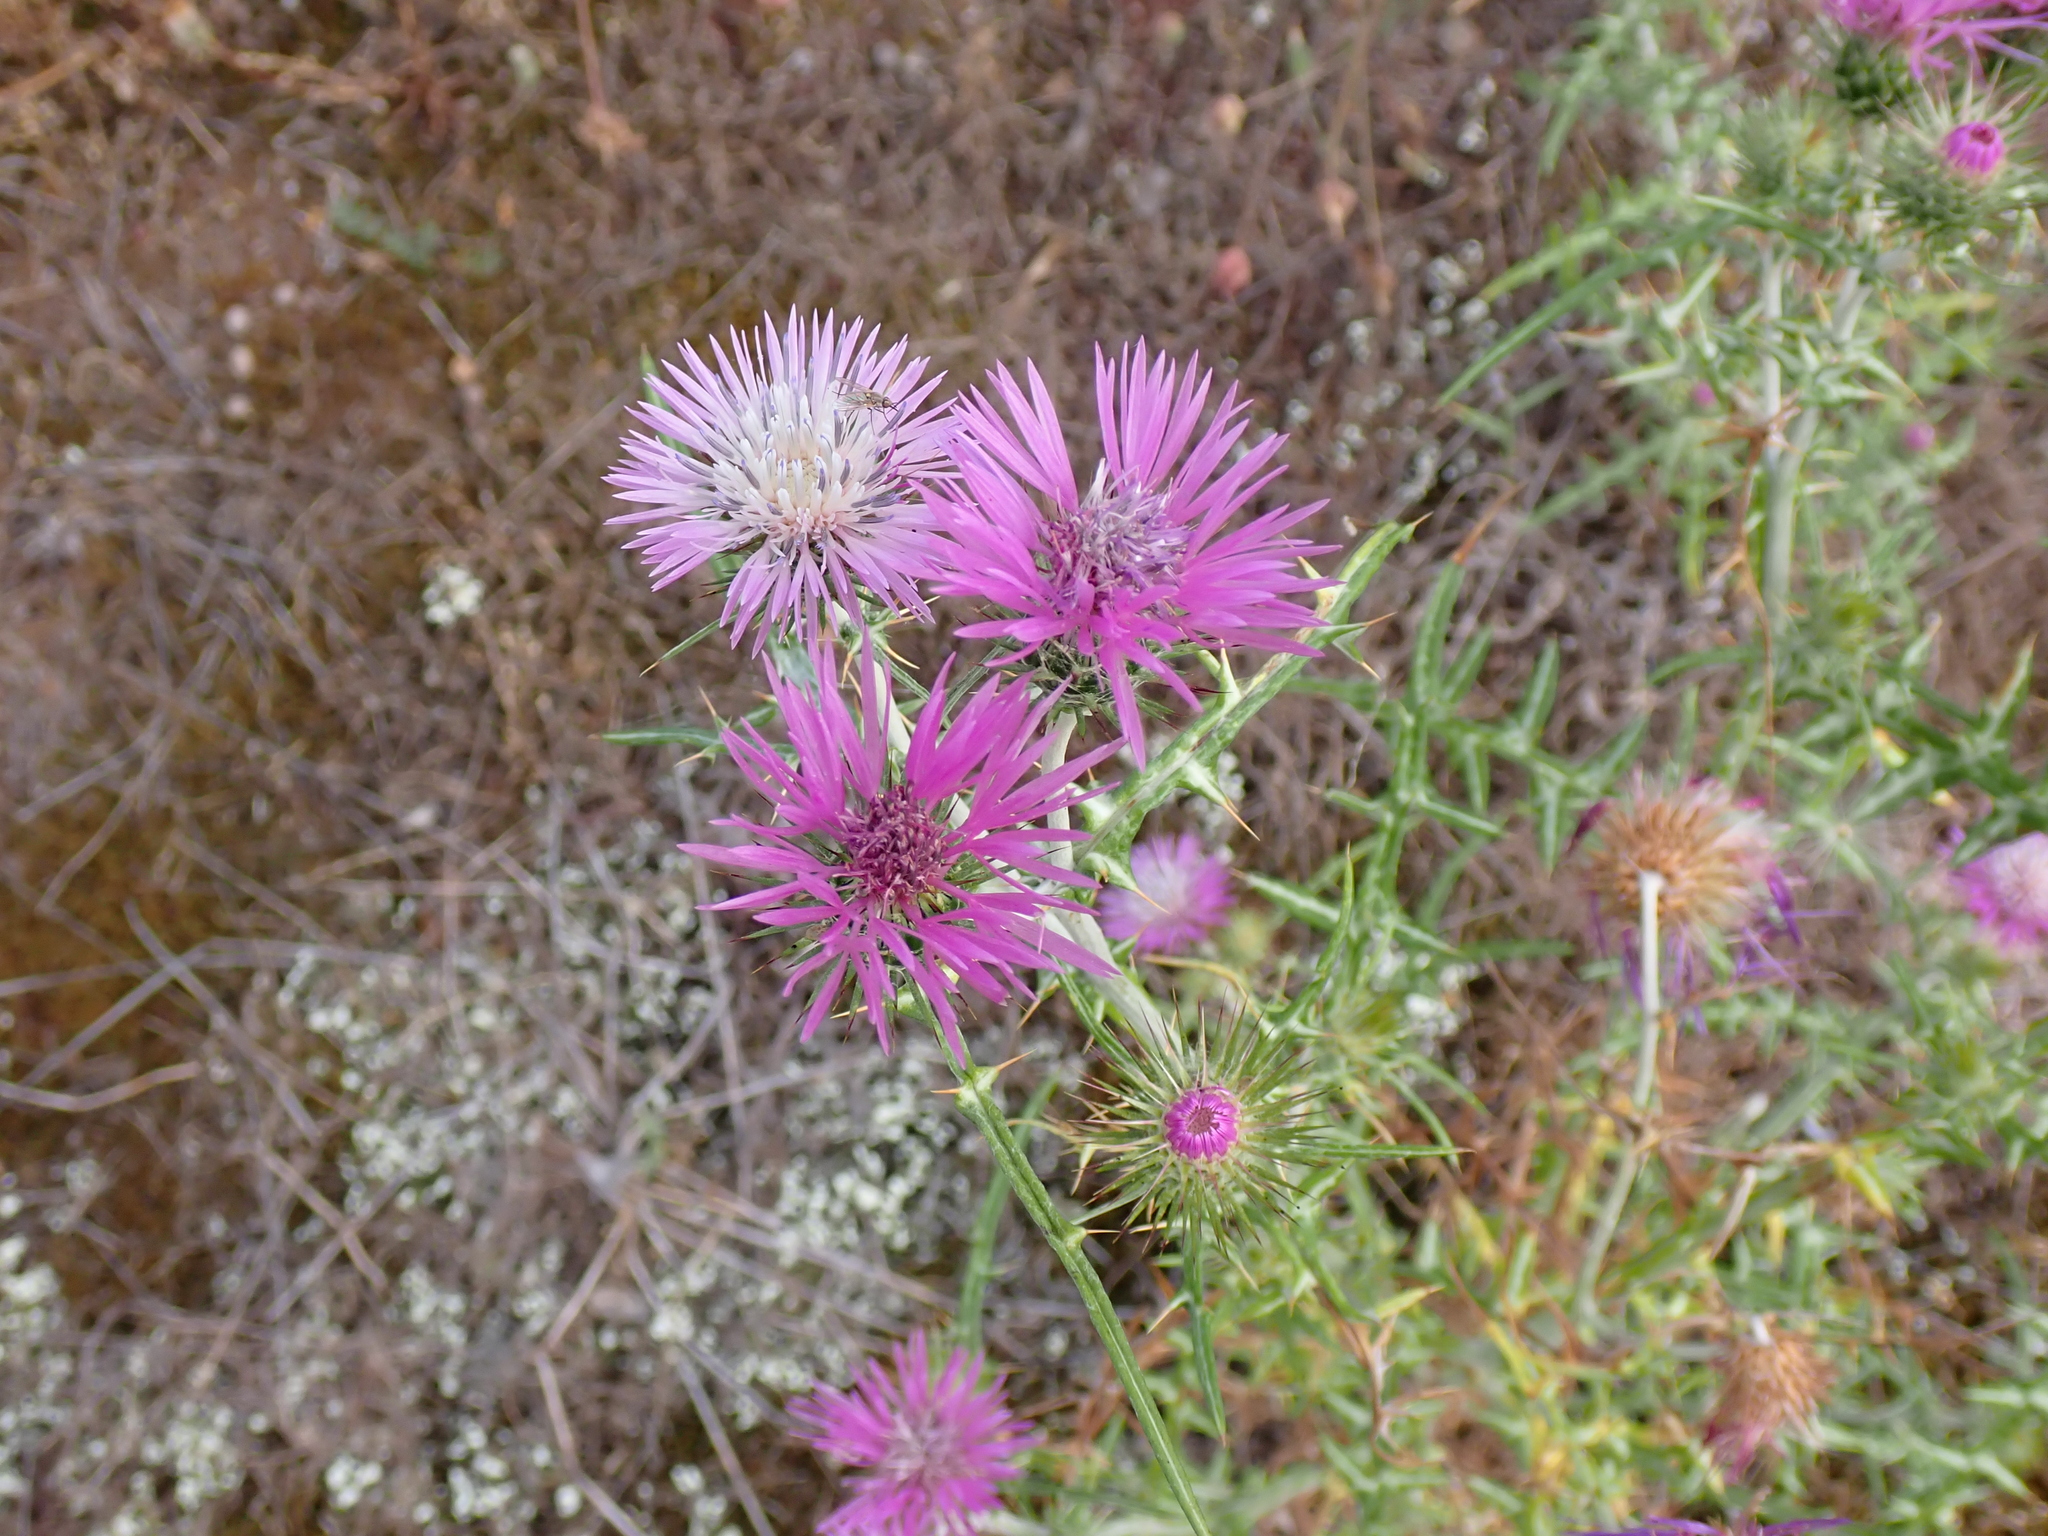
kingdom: Plantae
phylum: Tracheophyta
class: Magnoliopsida
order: Asterales
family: Asteraceae
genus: Galactites
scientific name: Galactites tomentosa
